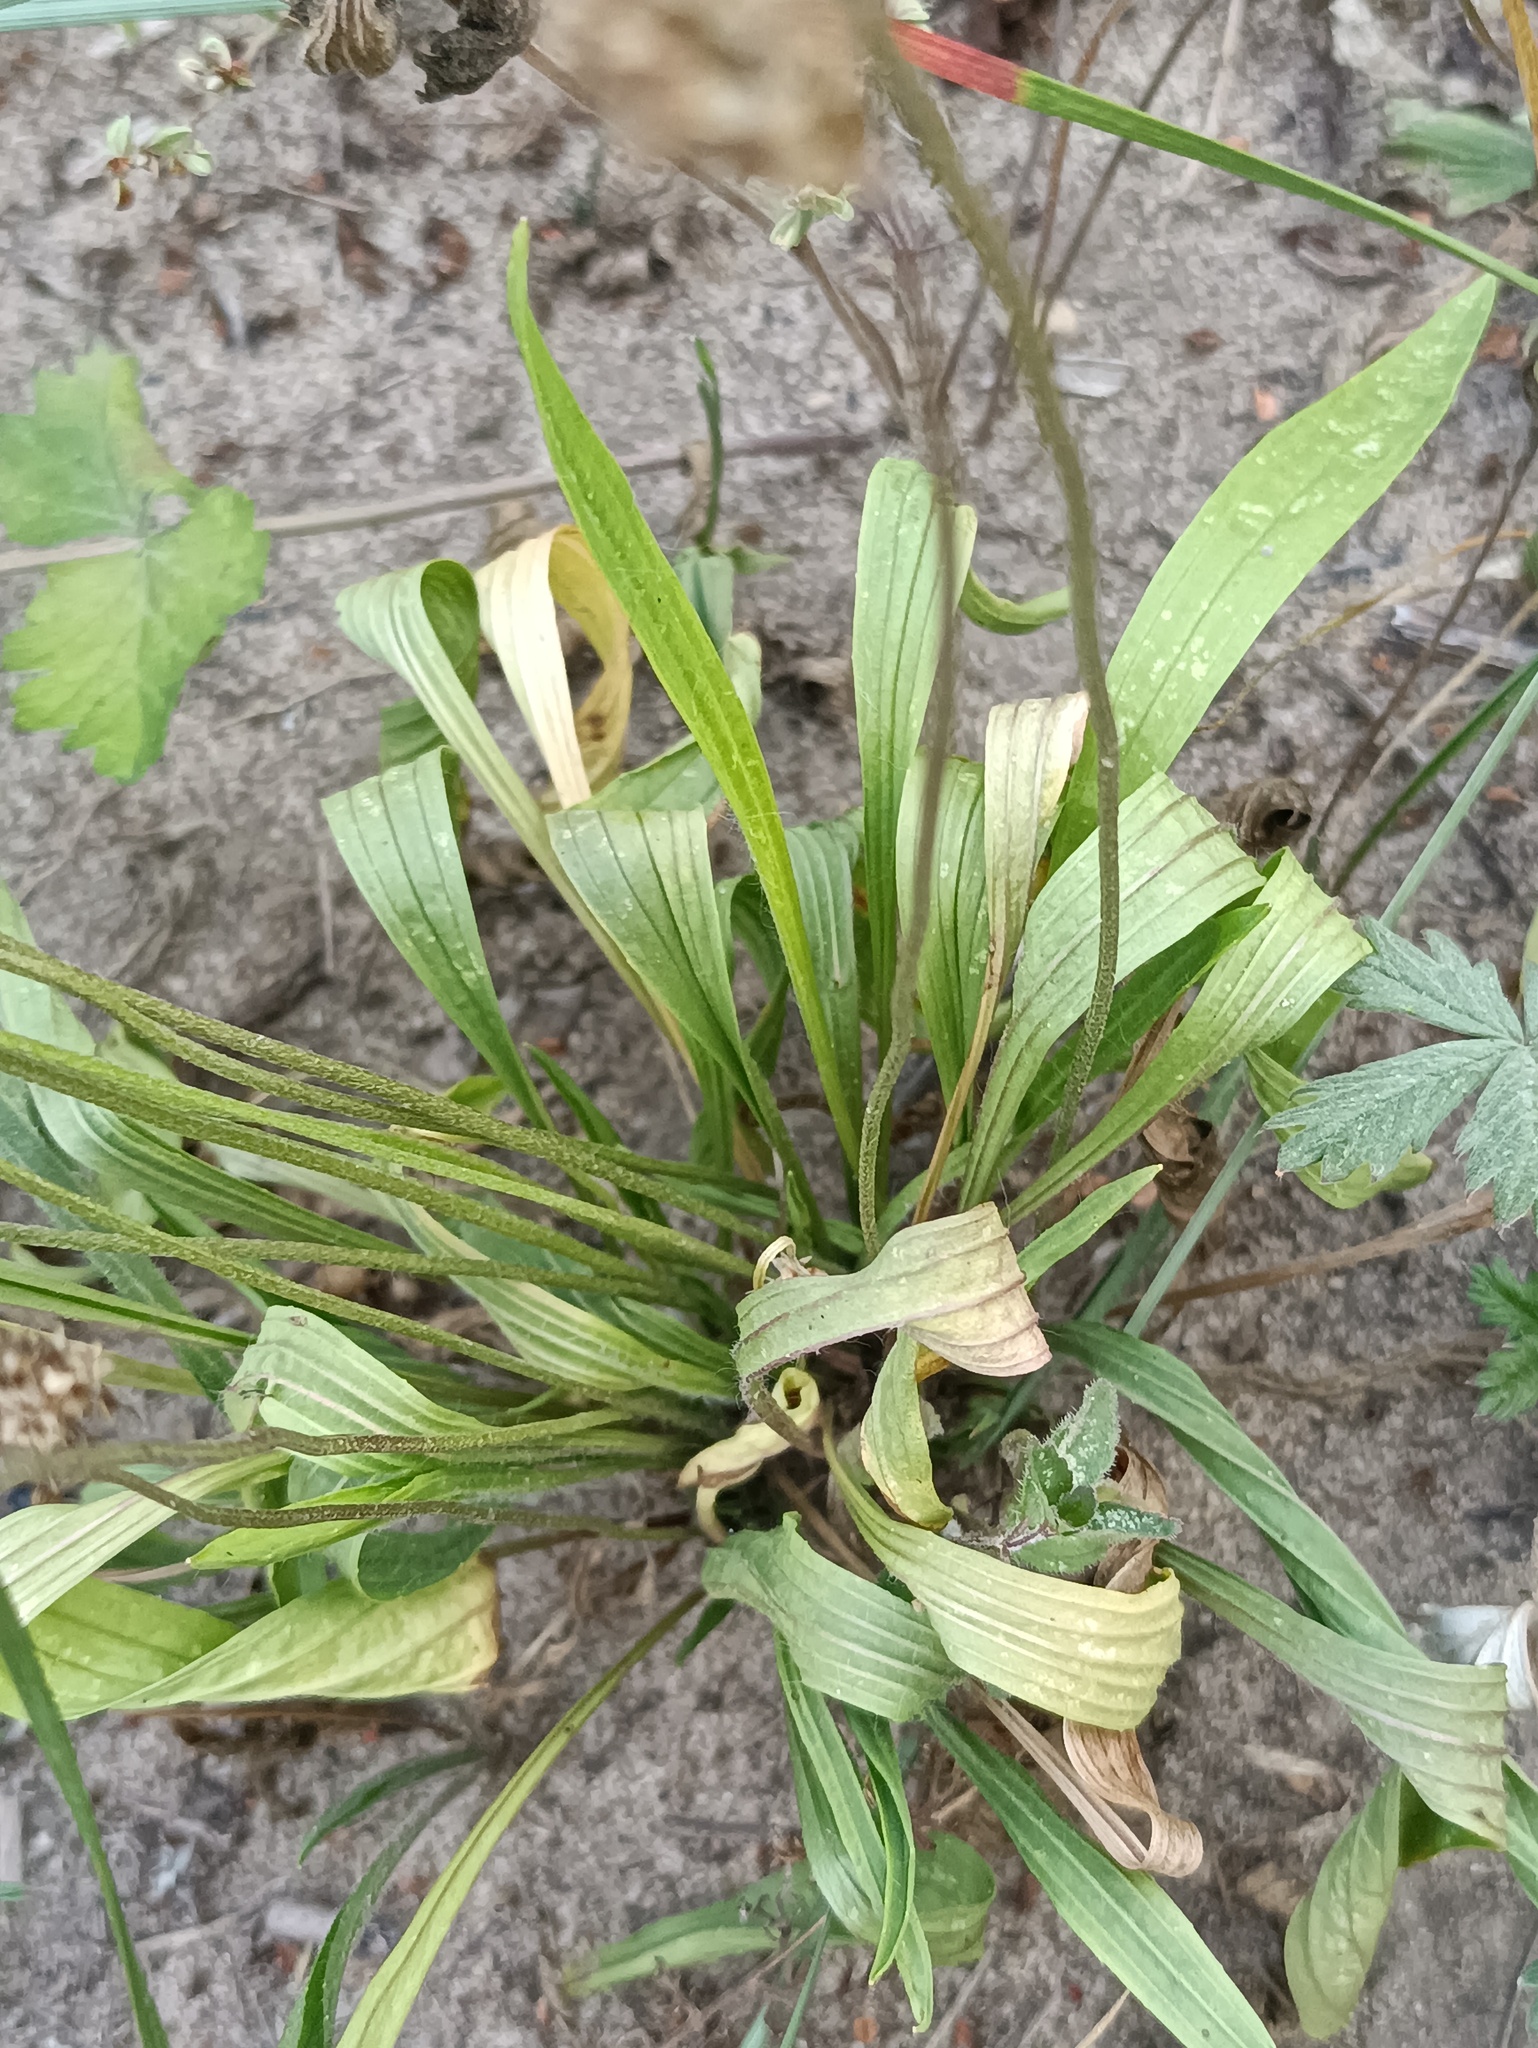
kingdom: Plantae
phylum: Tracheophyta
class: Magnoliopsida
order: Lamiales
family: Plantaginaceae
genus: Plantago
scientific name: Plantago lanceolata
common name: Ribwort plantain
